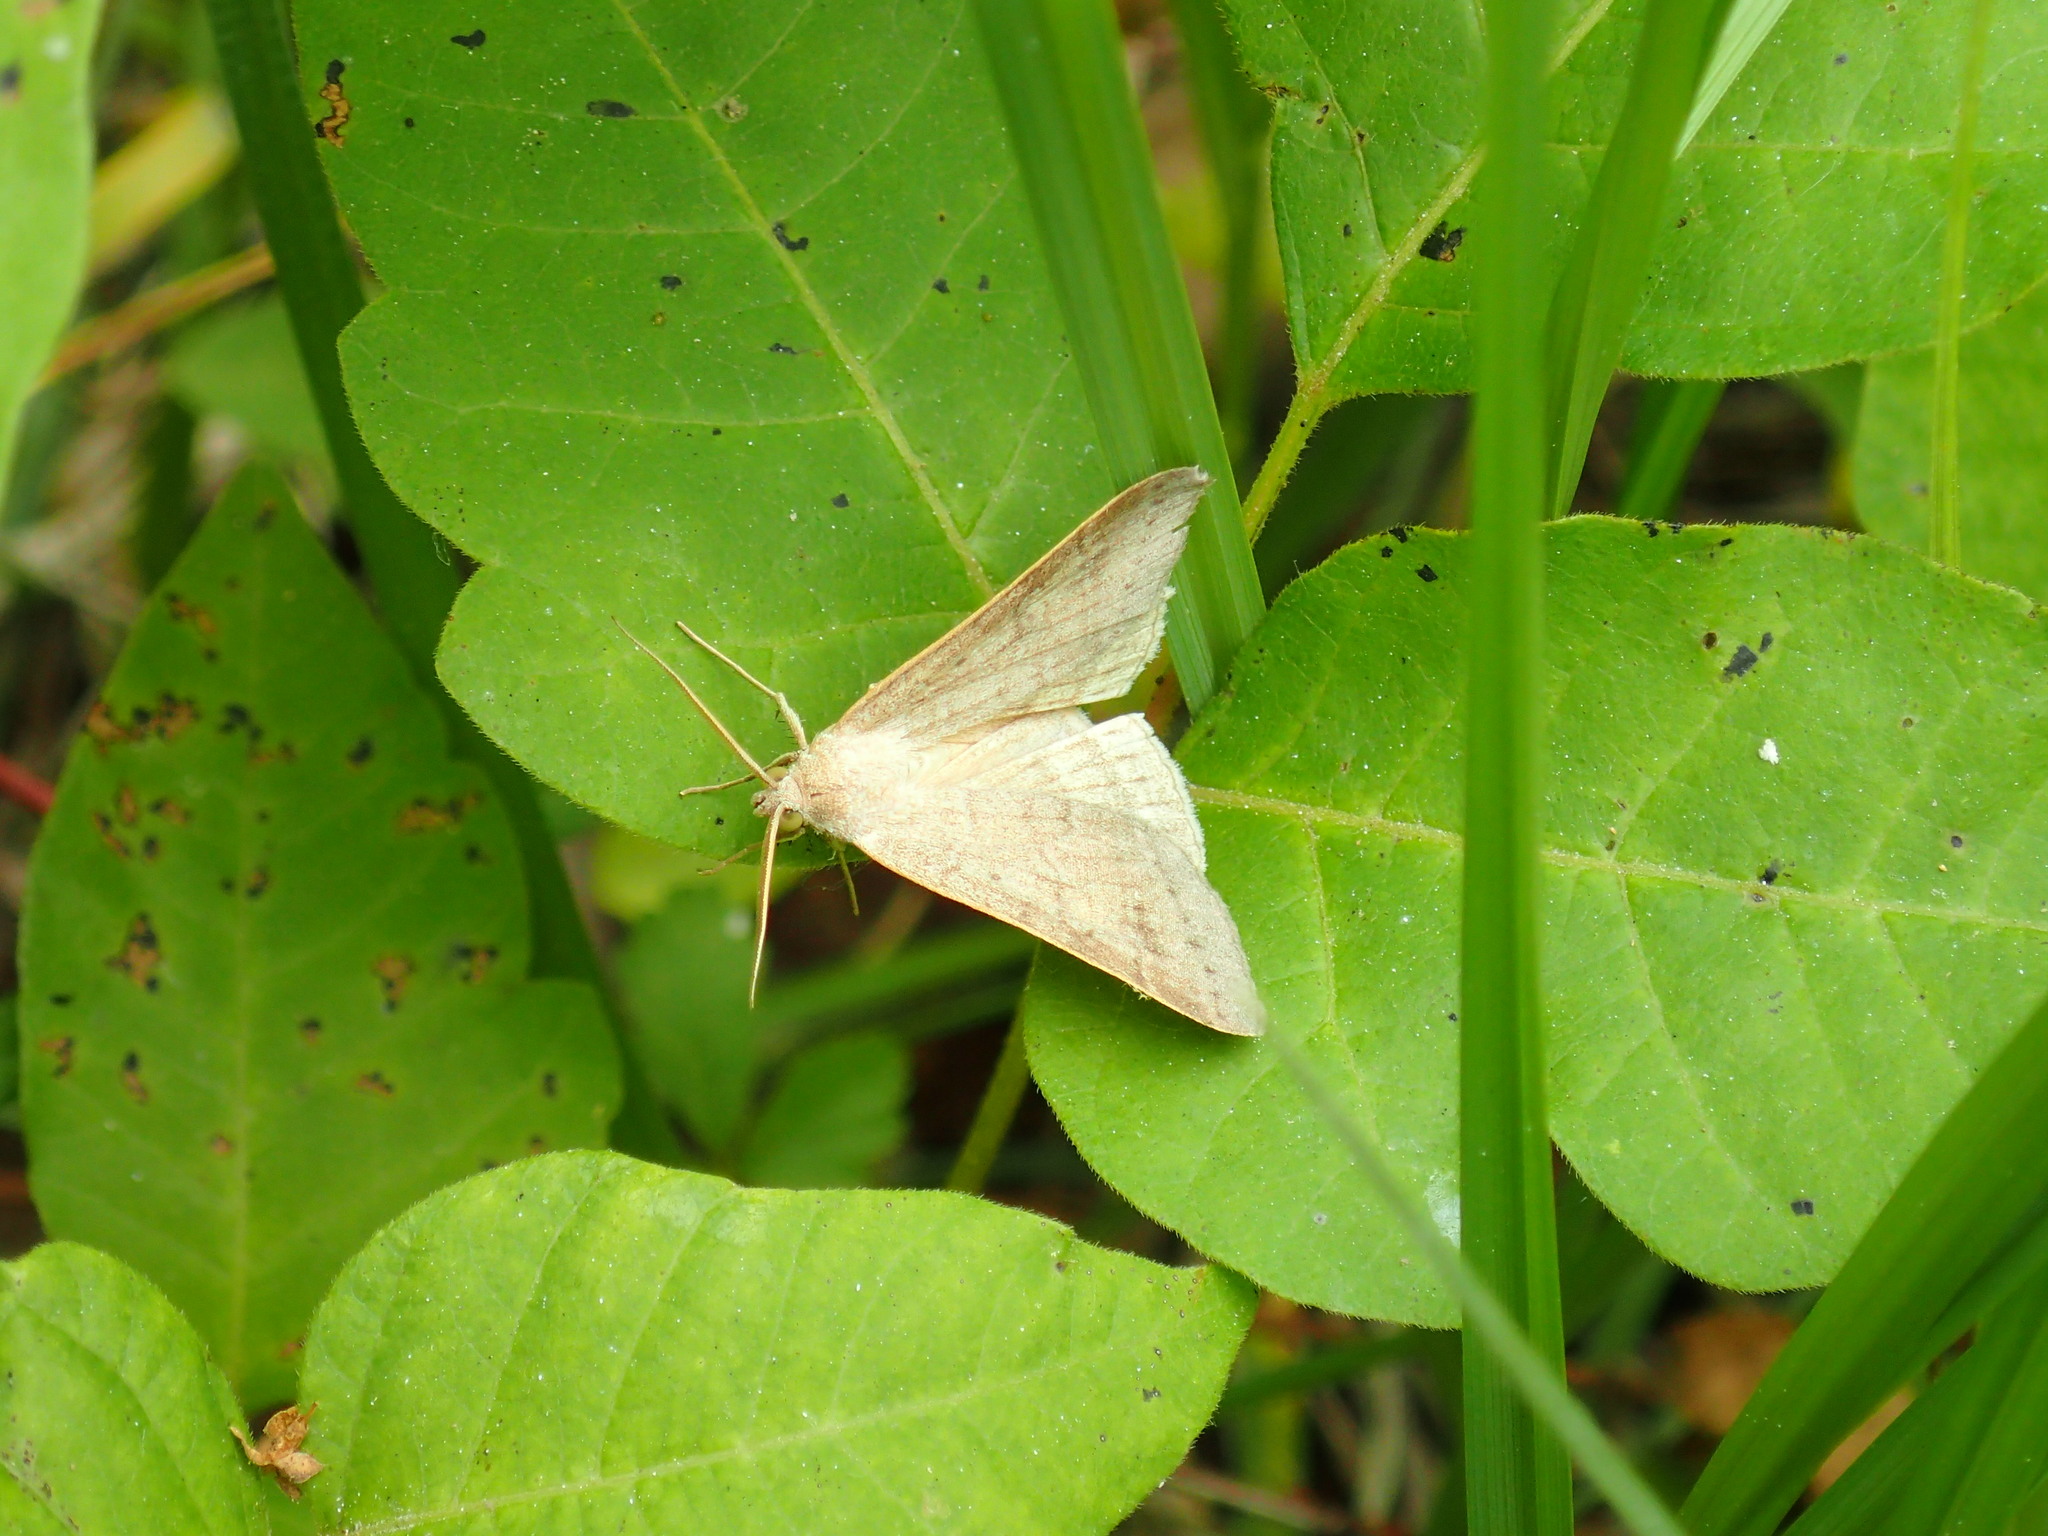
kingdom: Animalia
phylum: Arthropoda
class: Insecta
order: Lepidoptera
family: Erebidae
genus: Caenurgia
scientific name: Caenurgia chloropha
